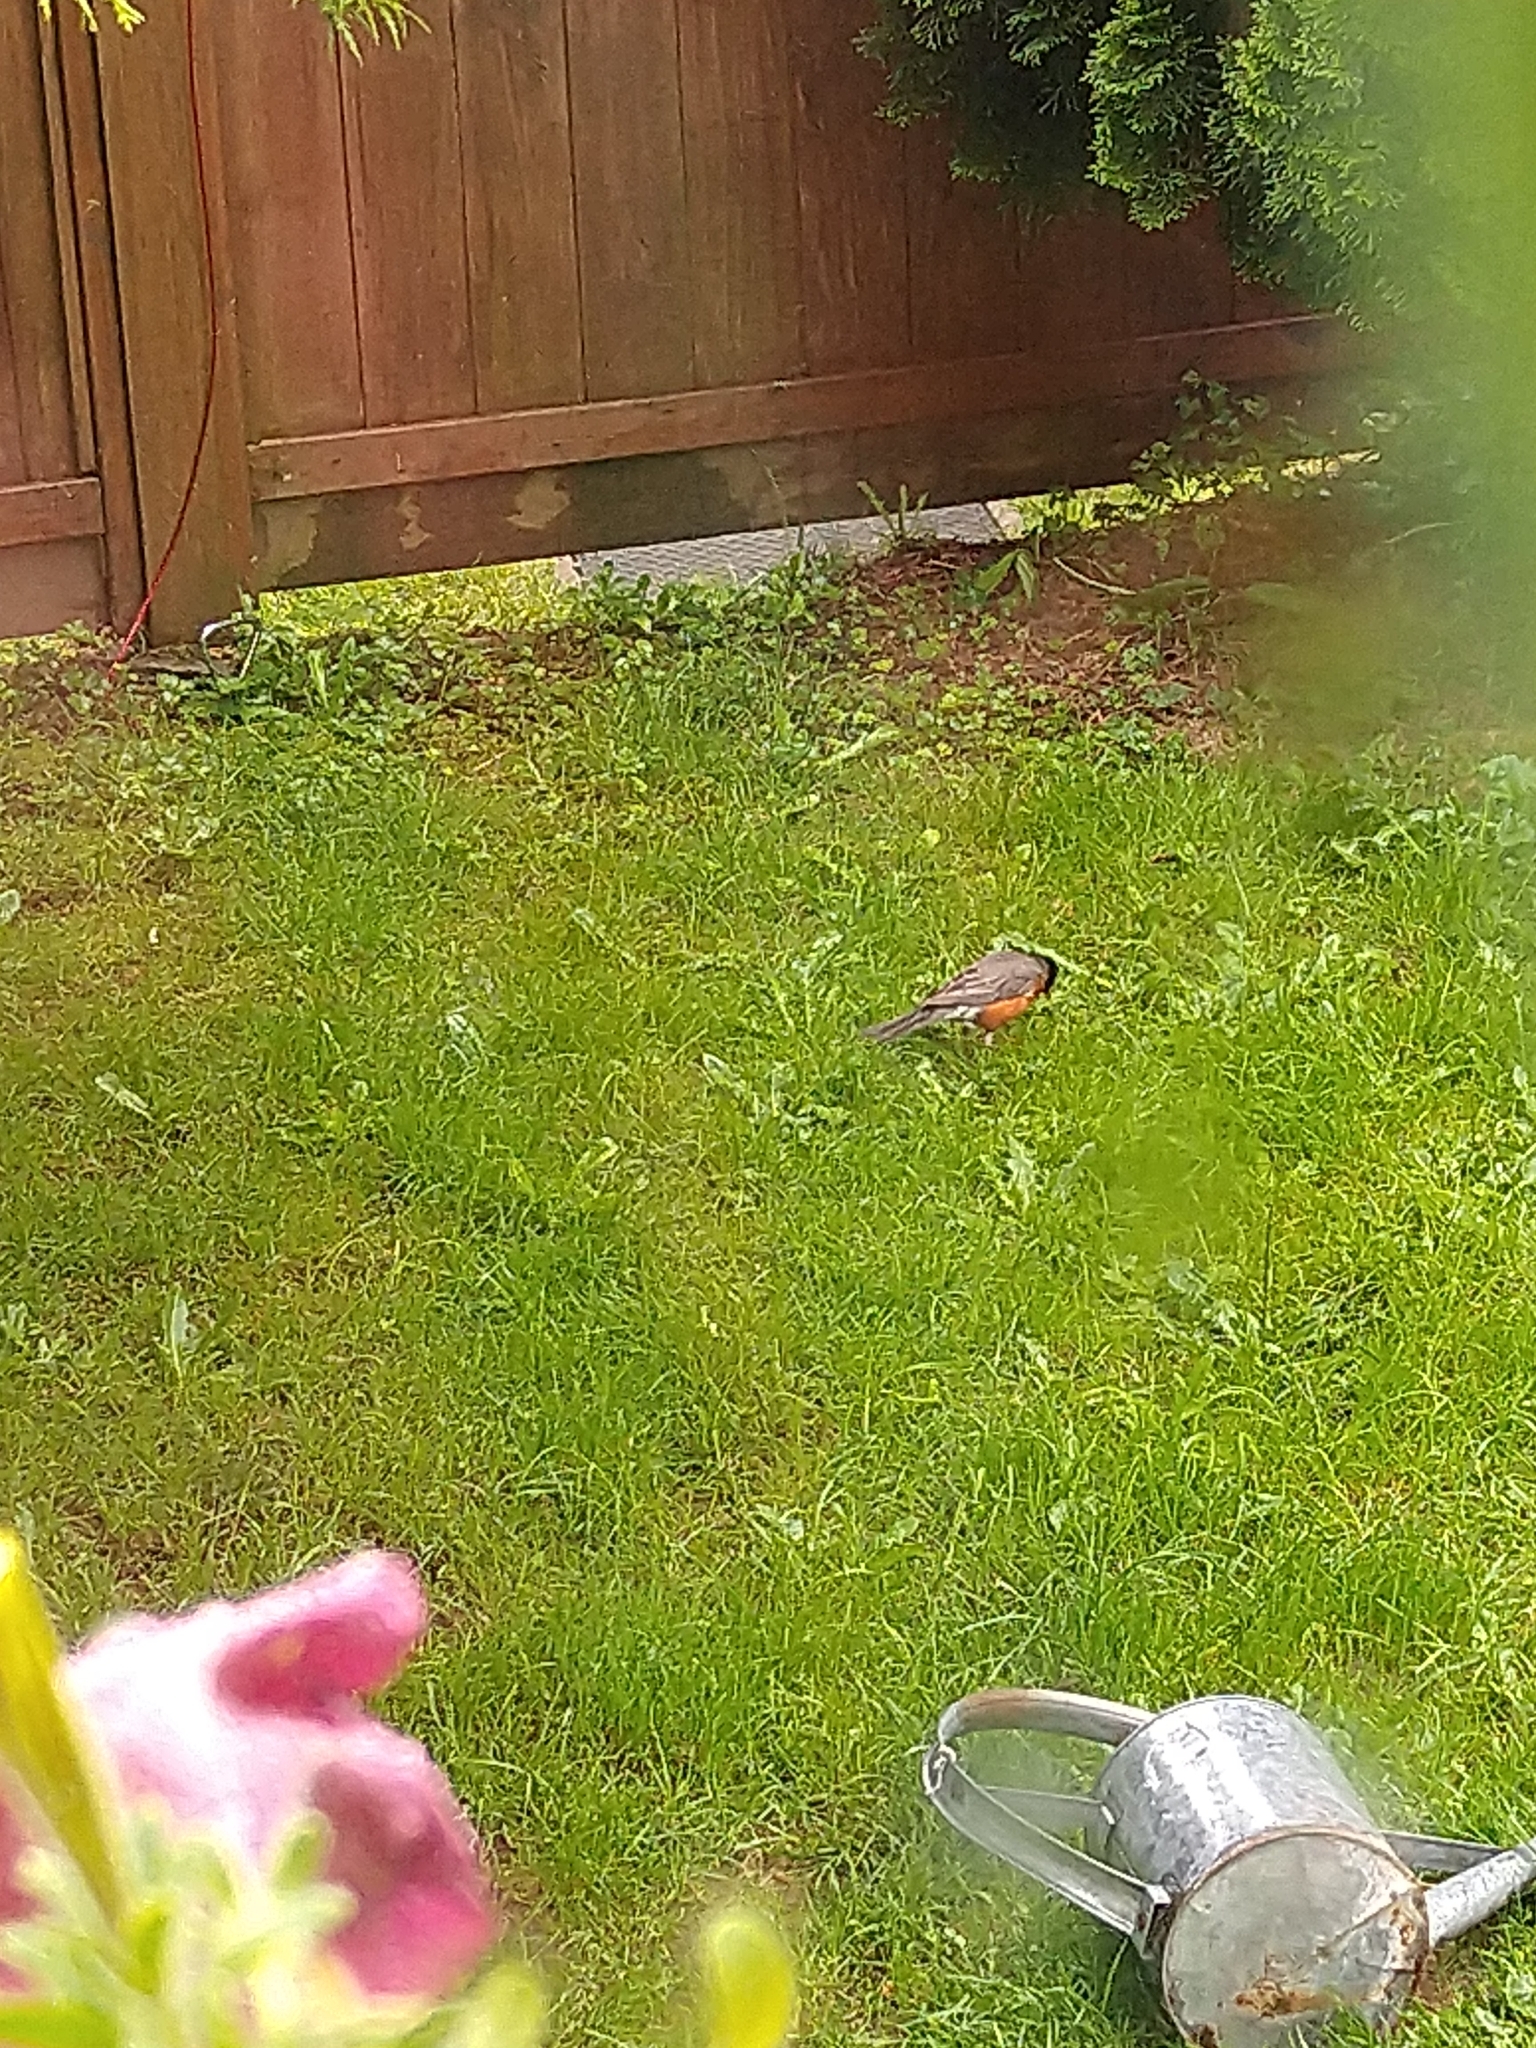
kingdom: Animalia
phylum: Chordata
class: Aves
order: Passeriformes
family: Turdidae
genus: Turdus
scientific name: Turdus migratorius
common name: American robin
